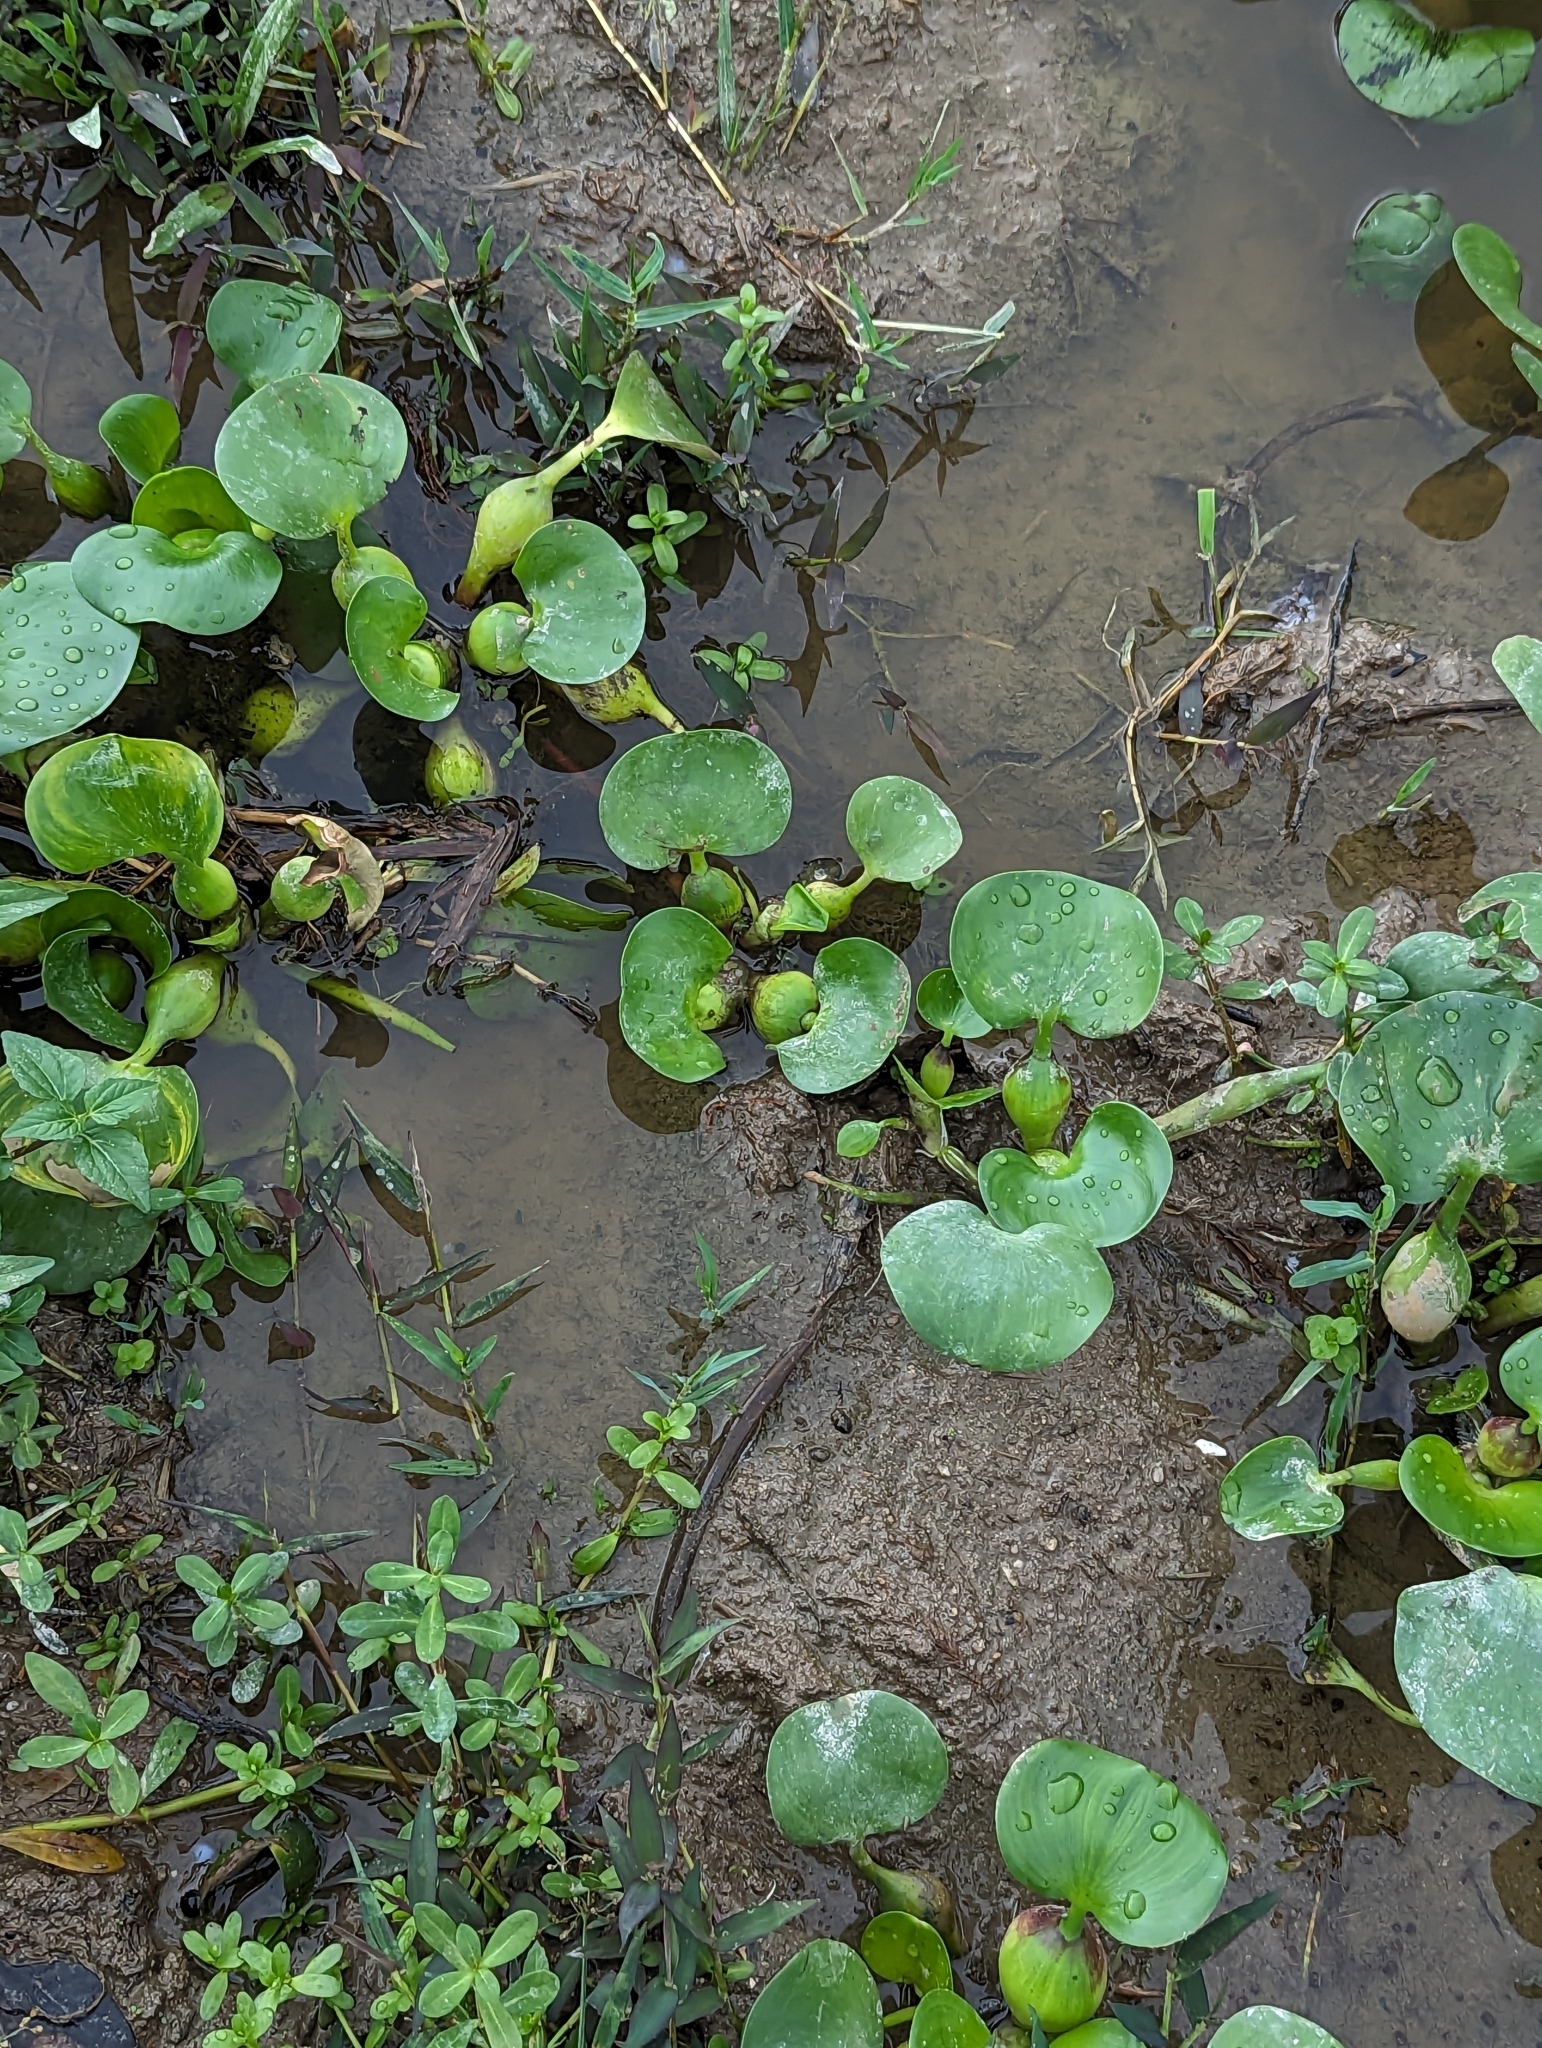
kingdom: Plantae
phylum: Tracheophyta
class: Liliopsida
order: Commelinales
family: Pontederiaceae
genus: Pontederia
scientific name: Pontederia crassipes
